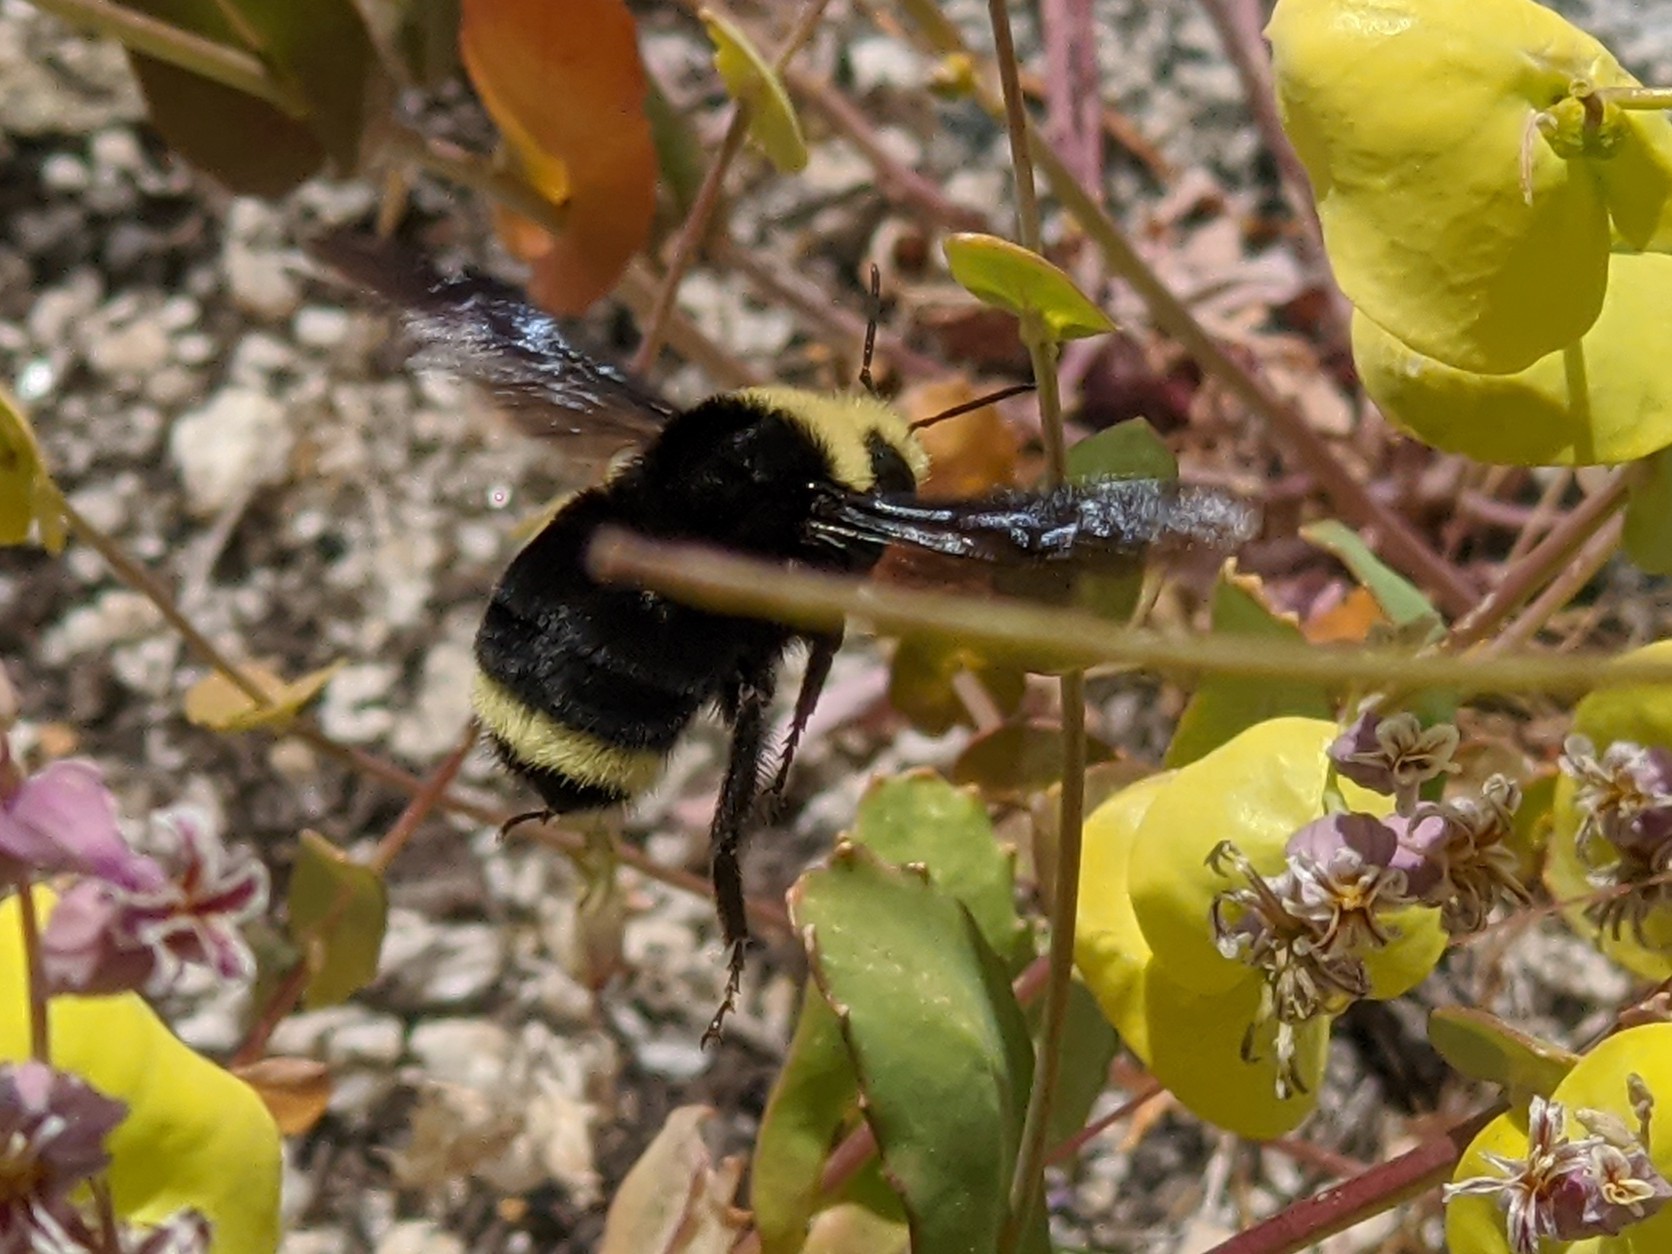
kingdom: Animalia
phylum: Arthropoda
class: Insecta
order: Hymenoptera
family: Apidae
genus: Bombus
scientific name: Bombus vosnesenskii
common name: Vosnesensky bumble bee
